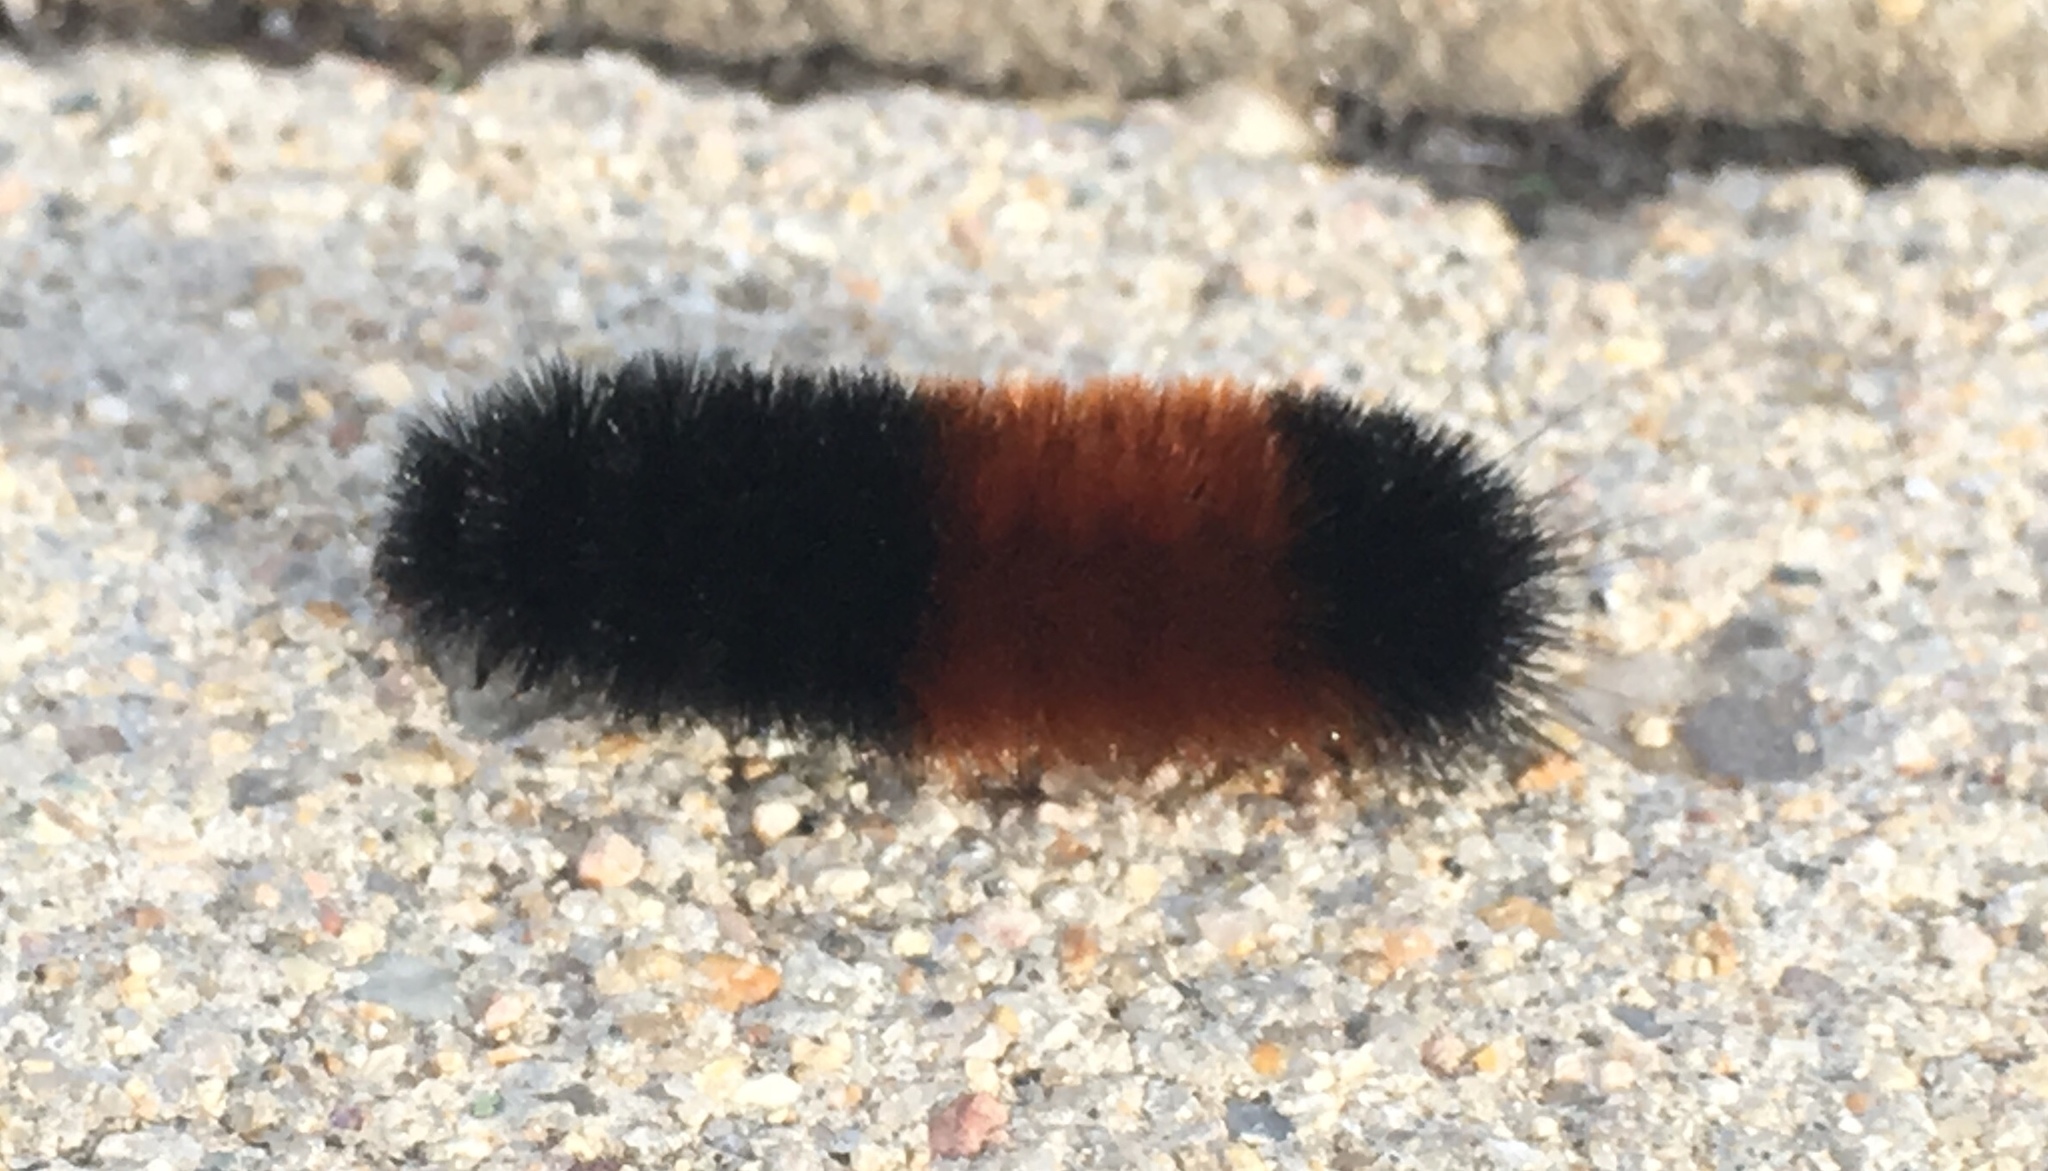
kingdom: Animalia
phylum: Arthropoda
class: Insecta
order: Lepidoptera
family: Erebidae
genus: Pyrrharctia
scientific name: Pyrrharctia isabella
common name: Isabella tiger moth
